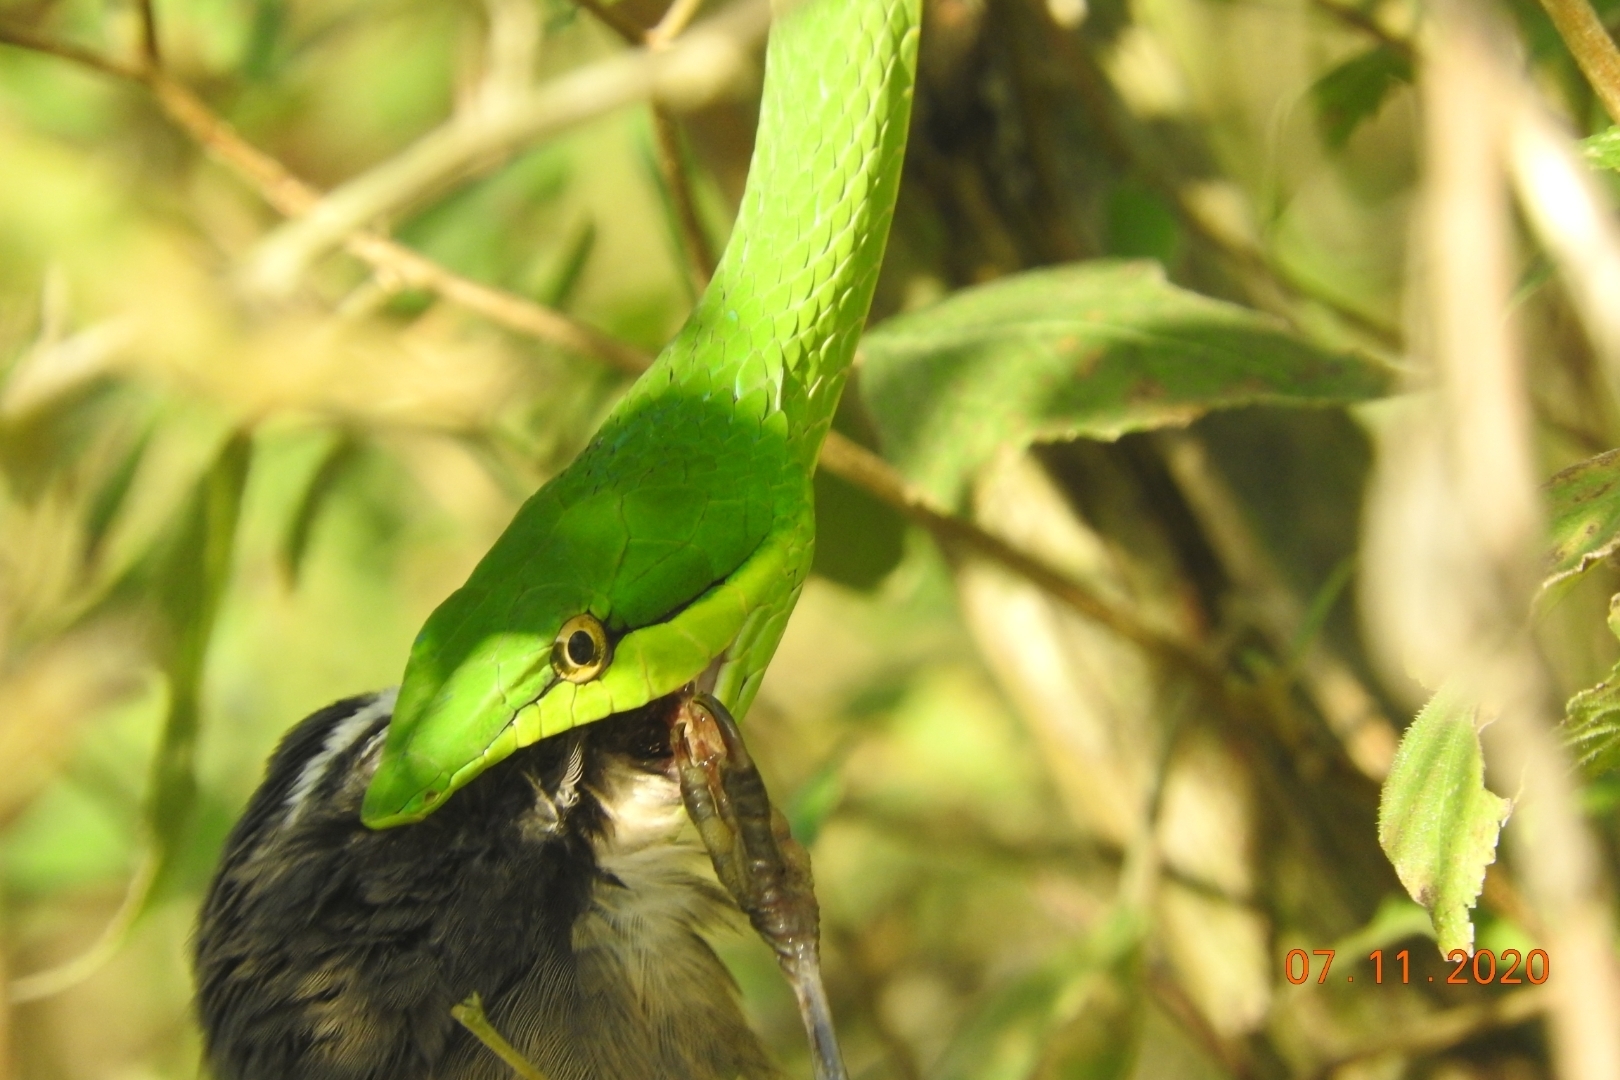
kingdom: Animalia
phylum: Chordata
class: Squamata
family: Colubridae
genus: Oxybelis
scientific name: Oxybelis fulgidus
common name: Green vine snake
